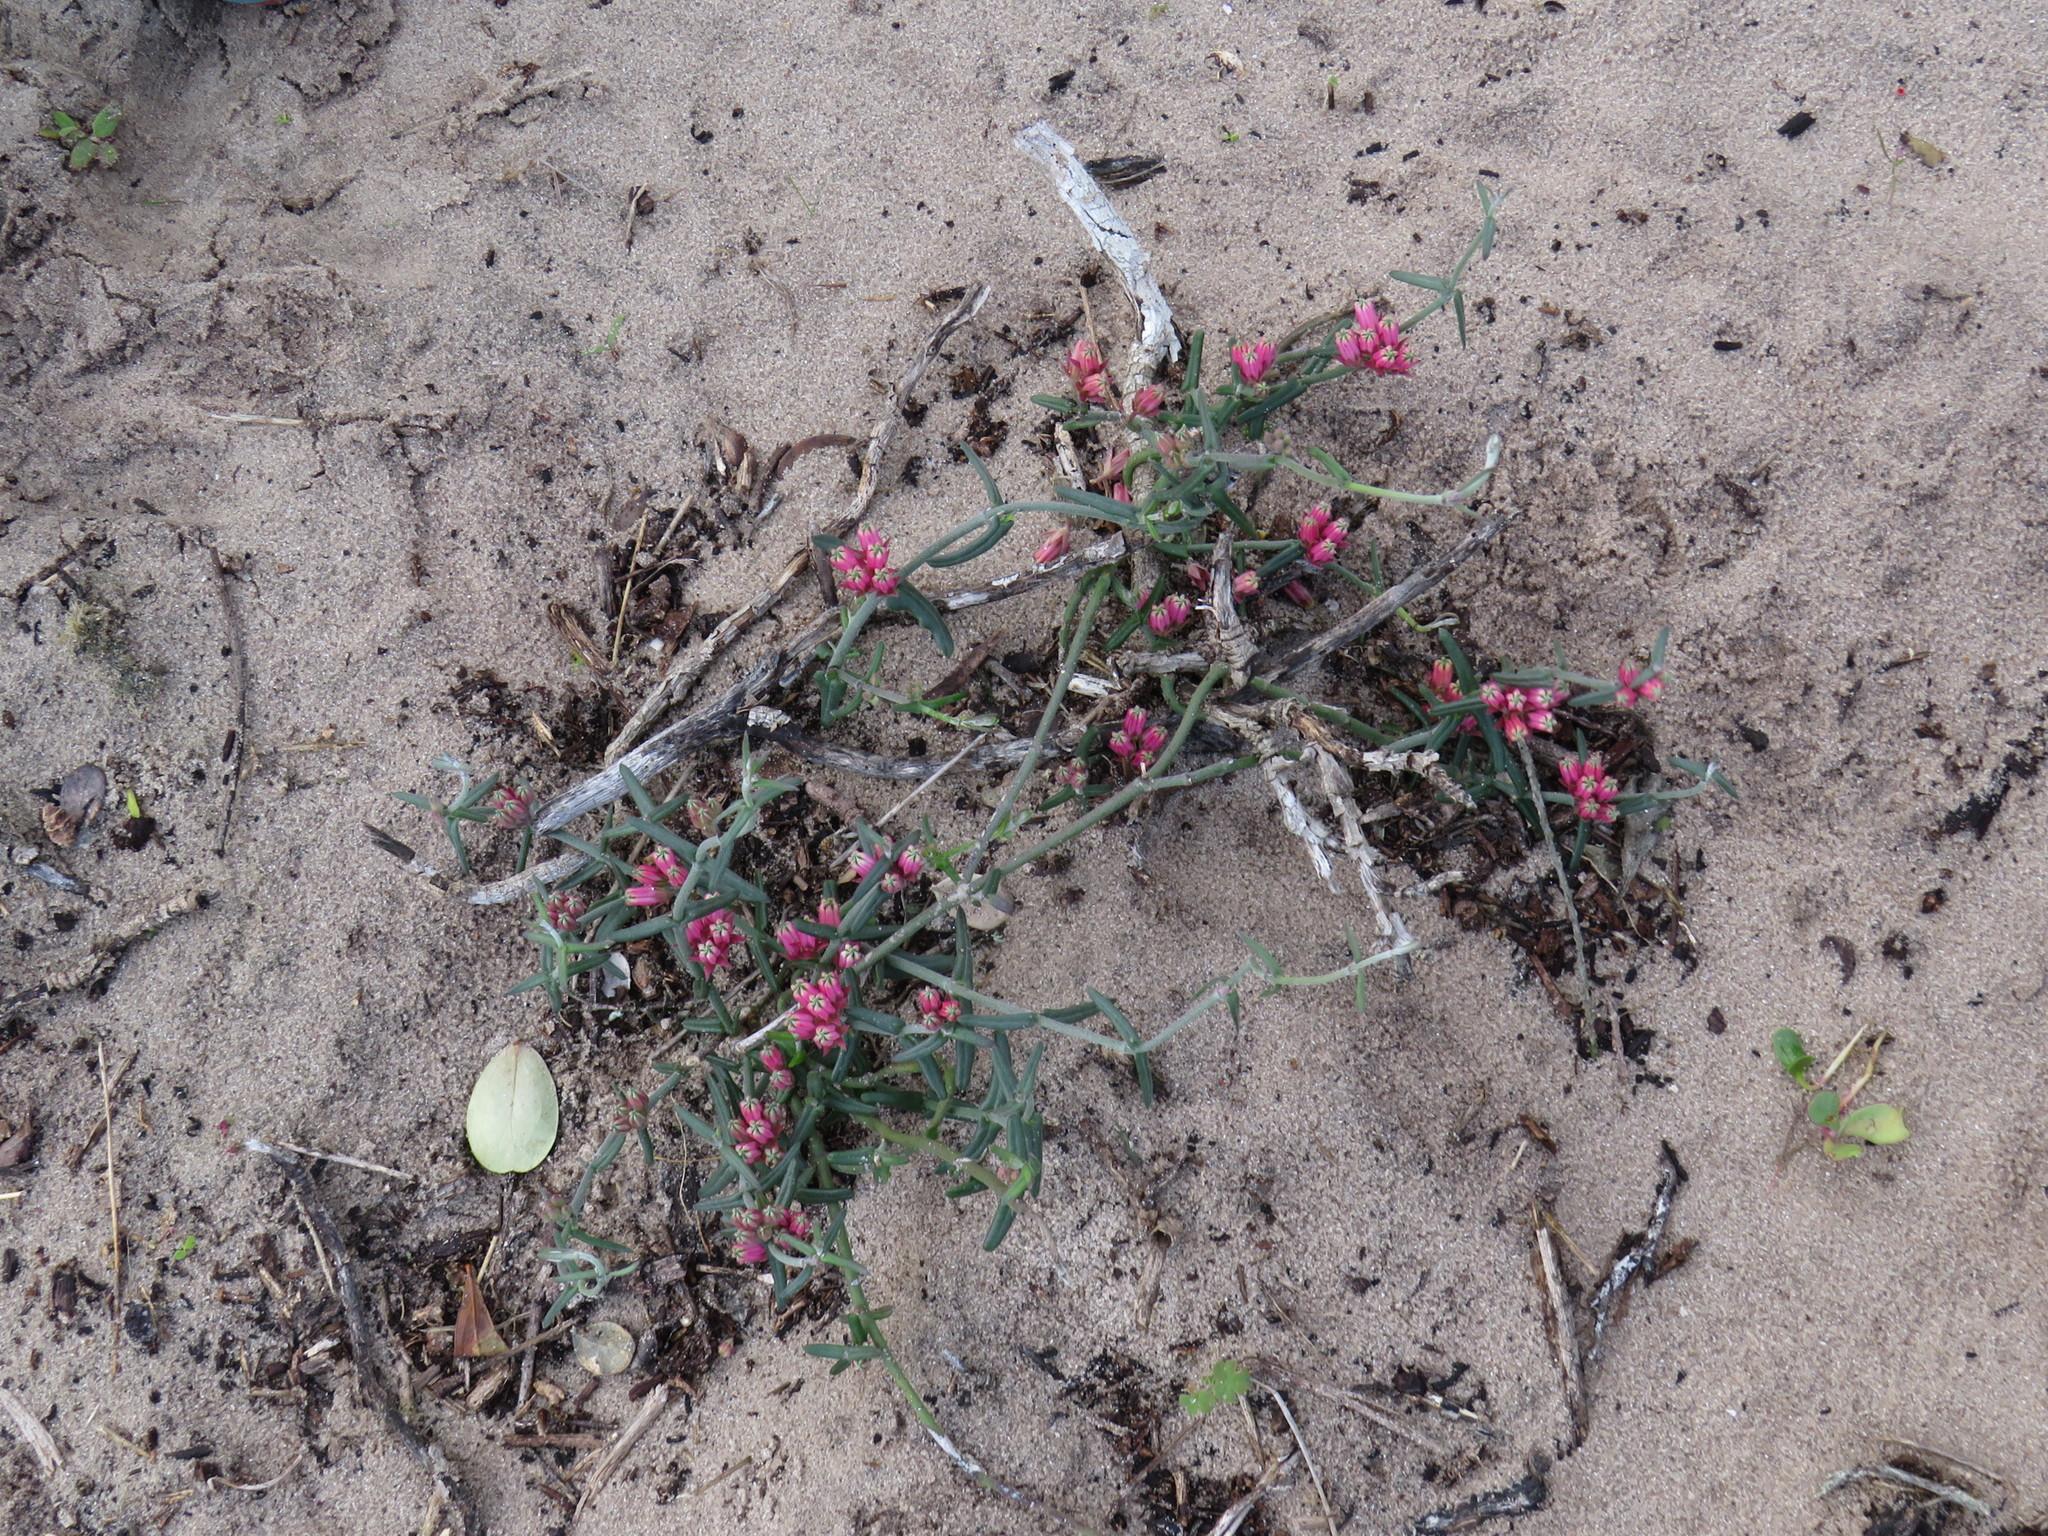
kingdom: Plantae
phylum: Tracheophyta
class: Magnoliopsida
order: Gentianales
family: Apocynaceae
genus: Microloma
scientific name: Microloma sagittatum
